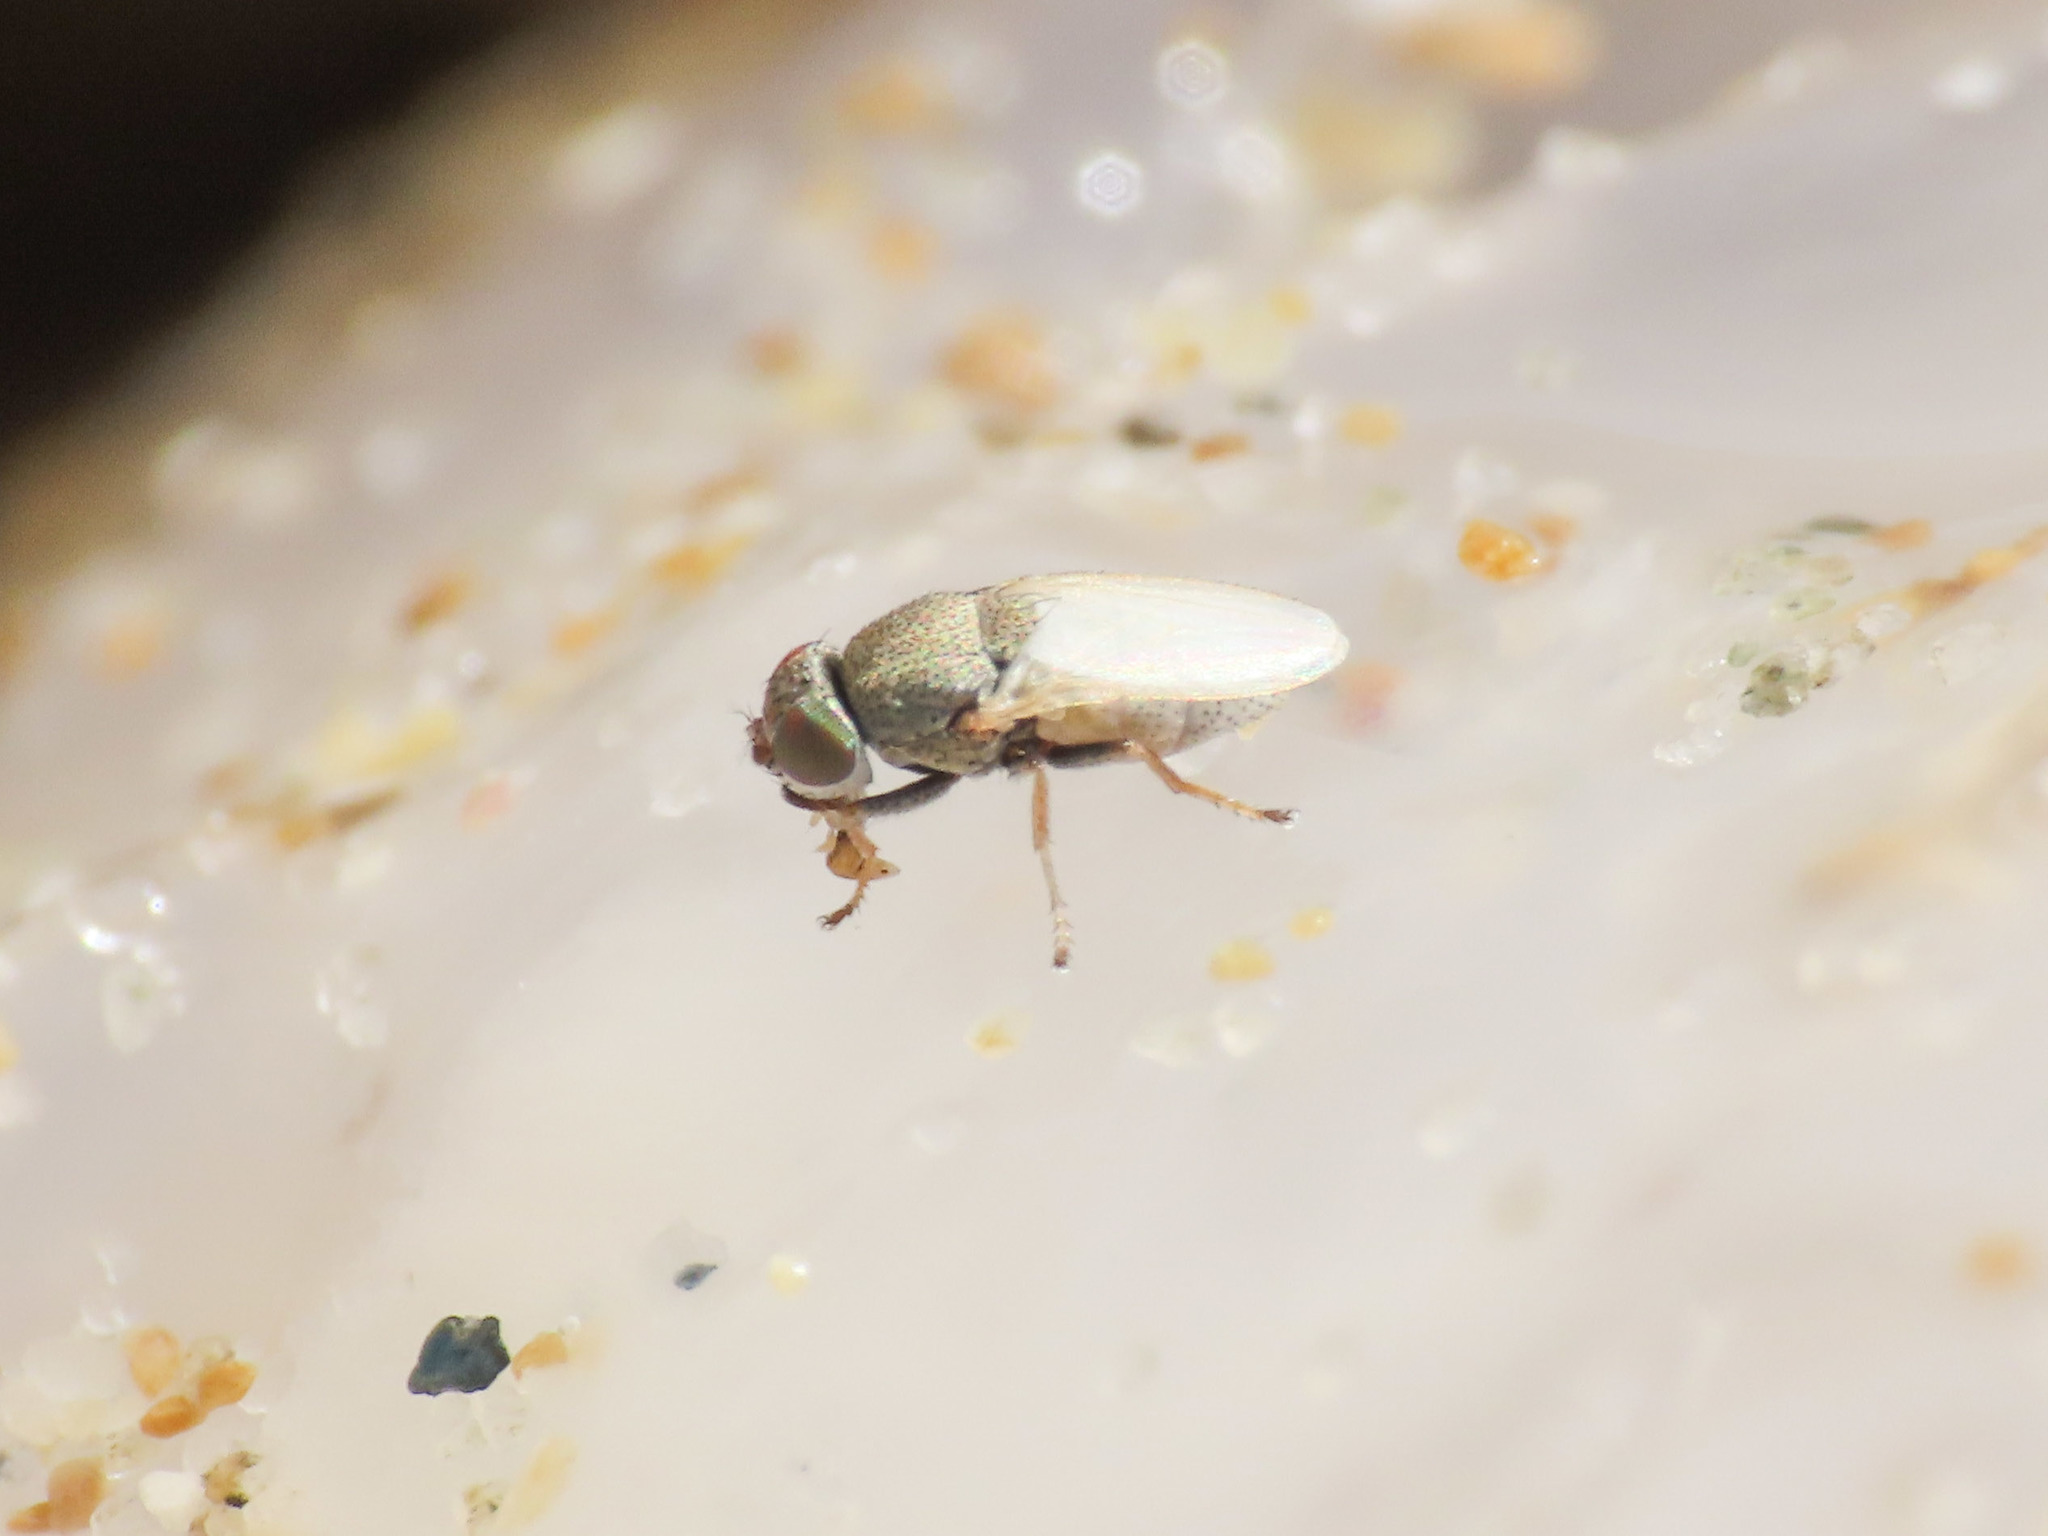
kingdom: Animalia
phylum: Arthropoda
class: Insecta
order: Diptera
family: Ephydridae
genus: Hecamede
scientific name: Hecamede albicans
